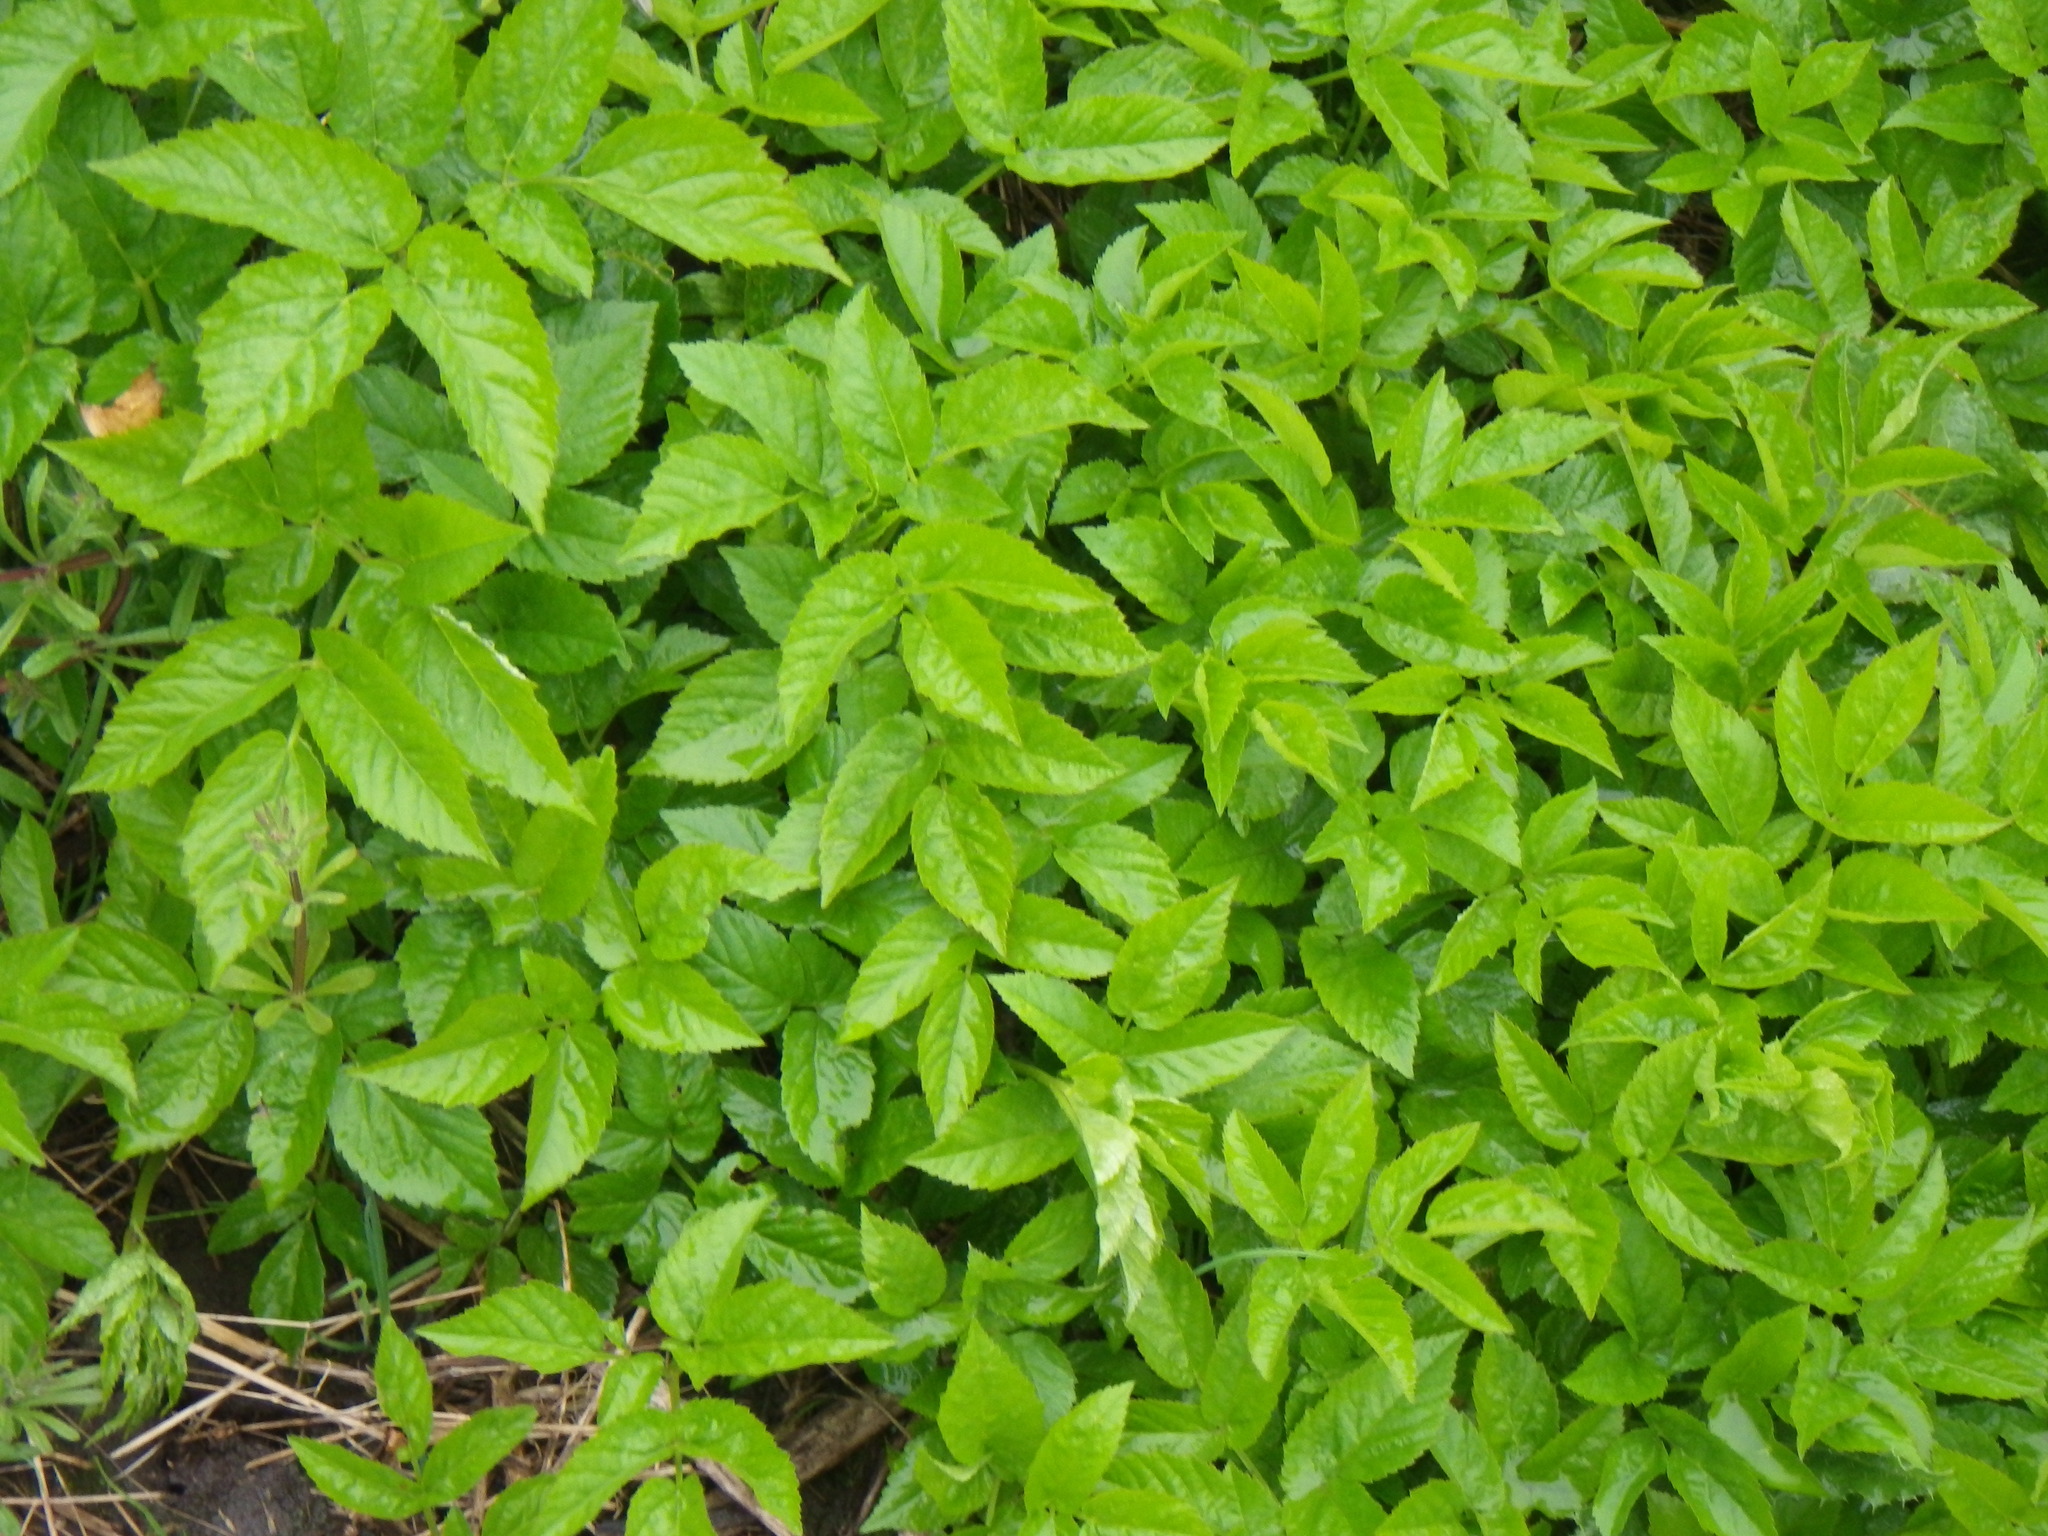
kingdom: Plantae
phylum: Tracheophyta
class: Magnoliopsida
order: Apiales
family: Apiaceae
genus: Aegopodium
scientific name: Aegopodium podagraria
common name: Ground-elder
